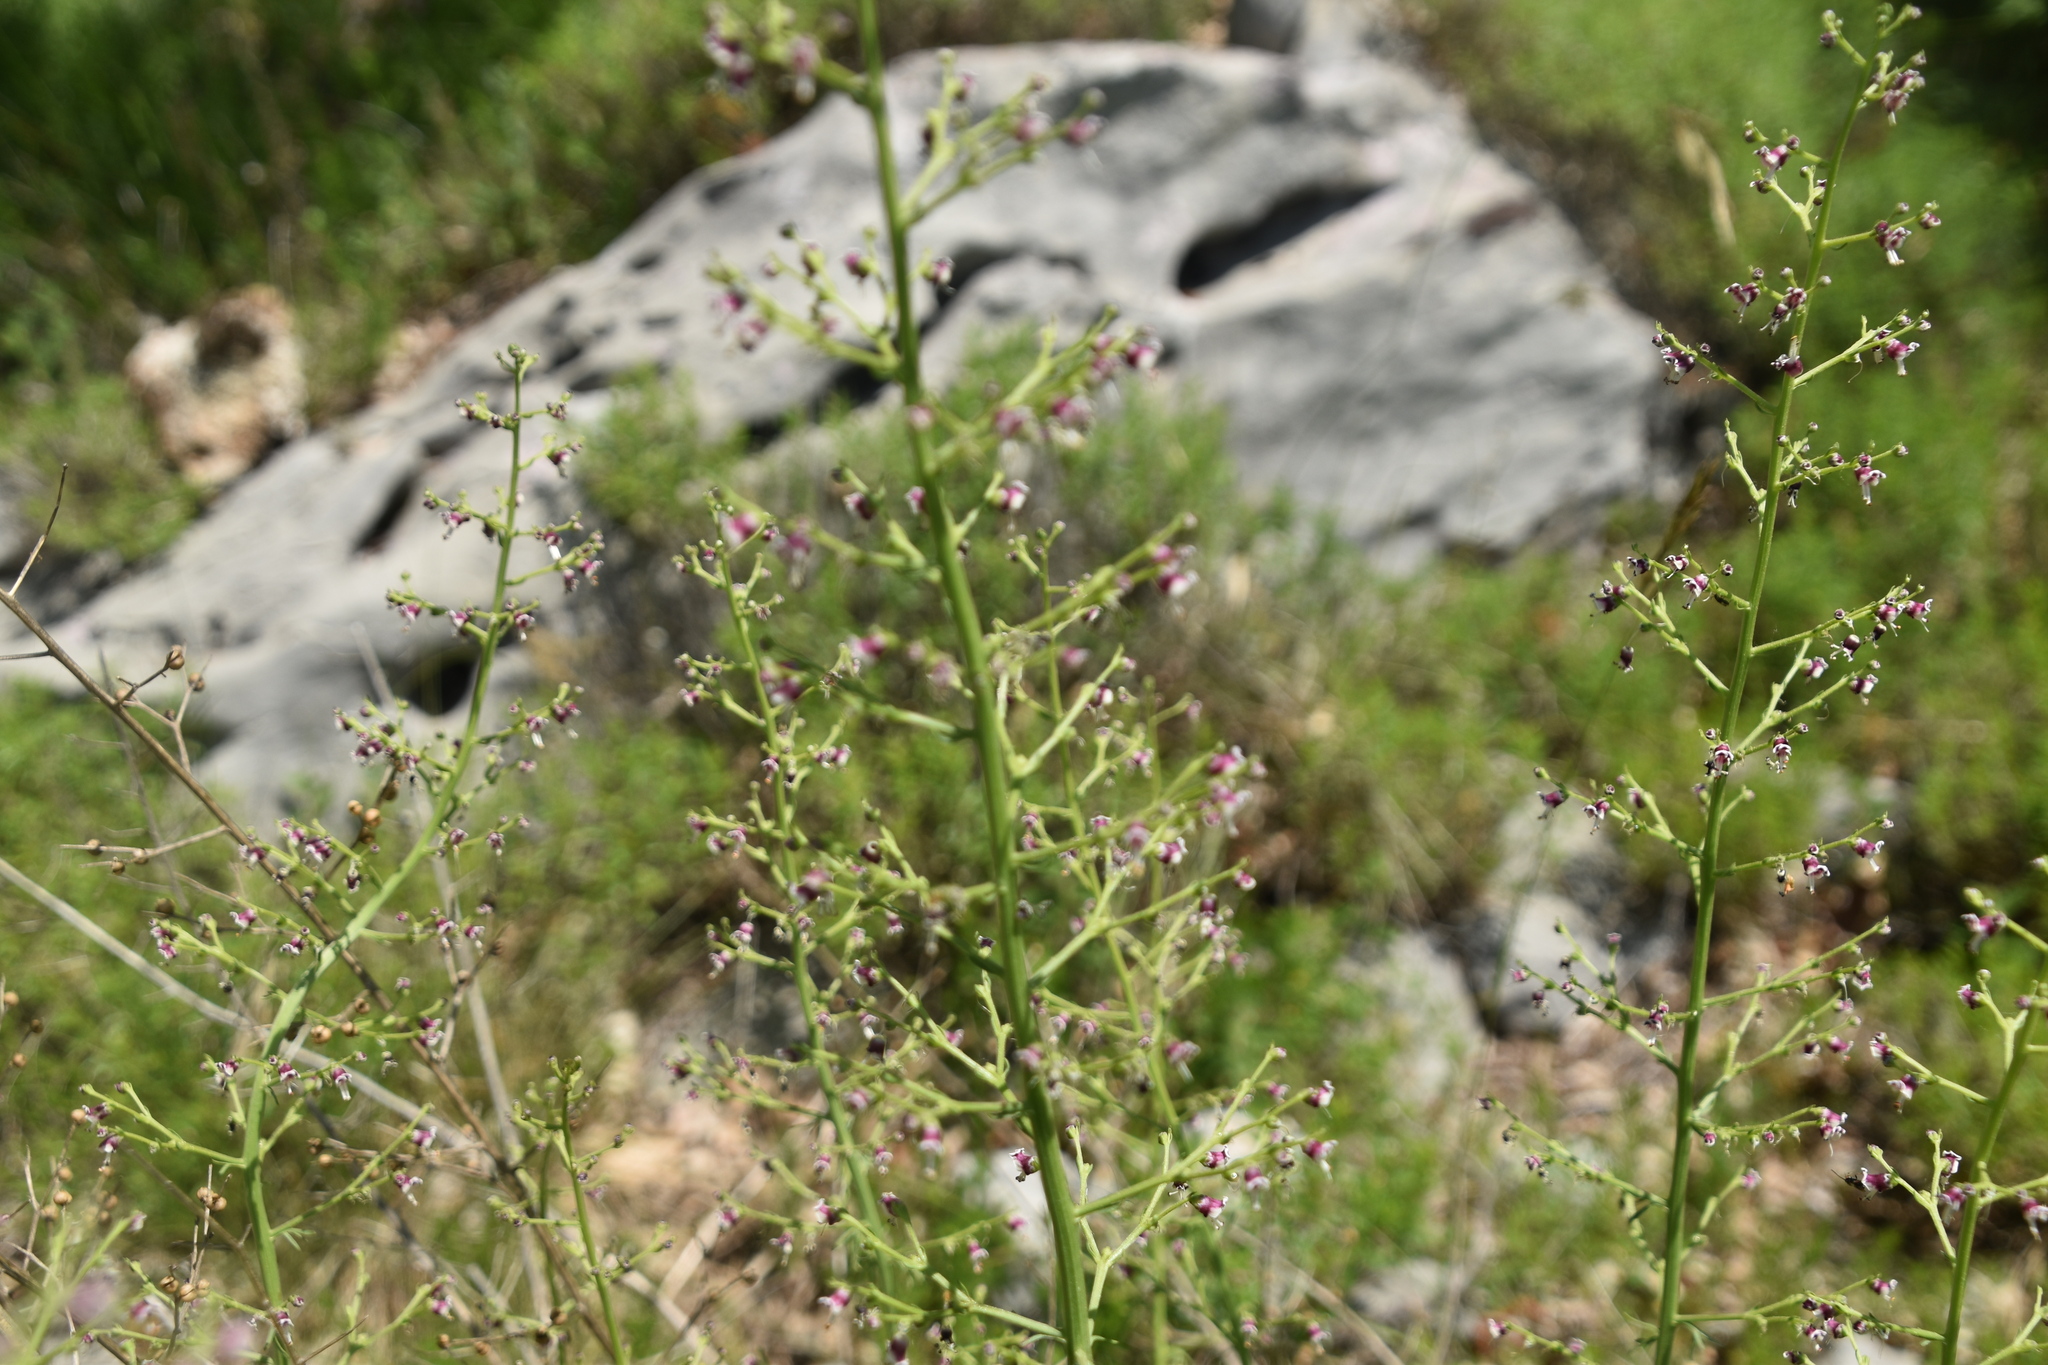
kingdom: Plantae
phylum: Tracheophyta
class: Magnoliopsida
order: Lamiales
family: Scrophulariaceae
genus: Scrophularia
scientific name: Scrophularia canina
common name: French figwort
